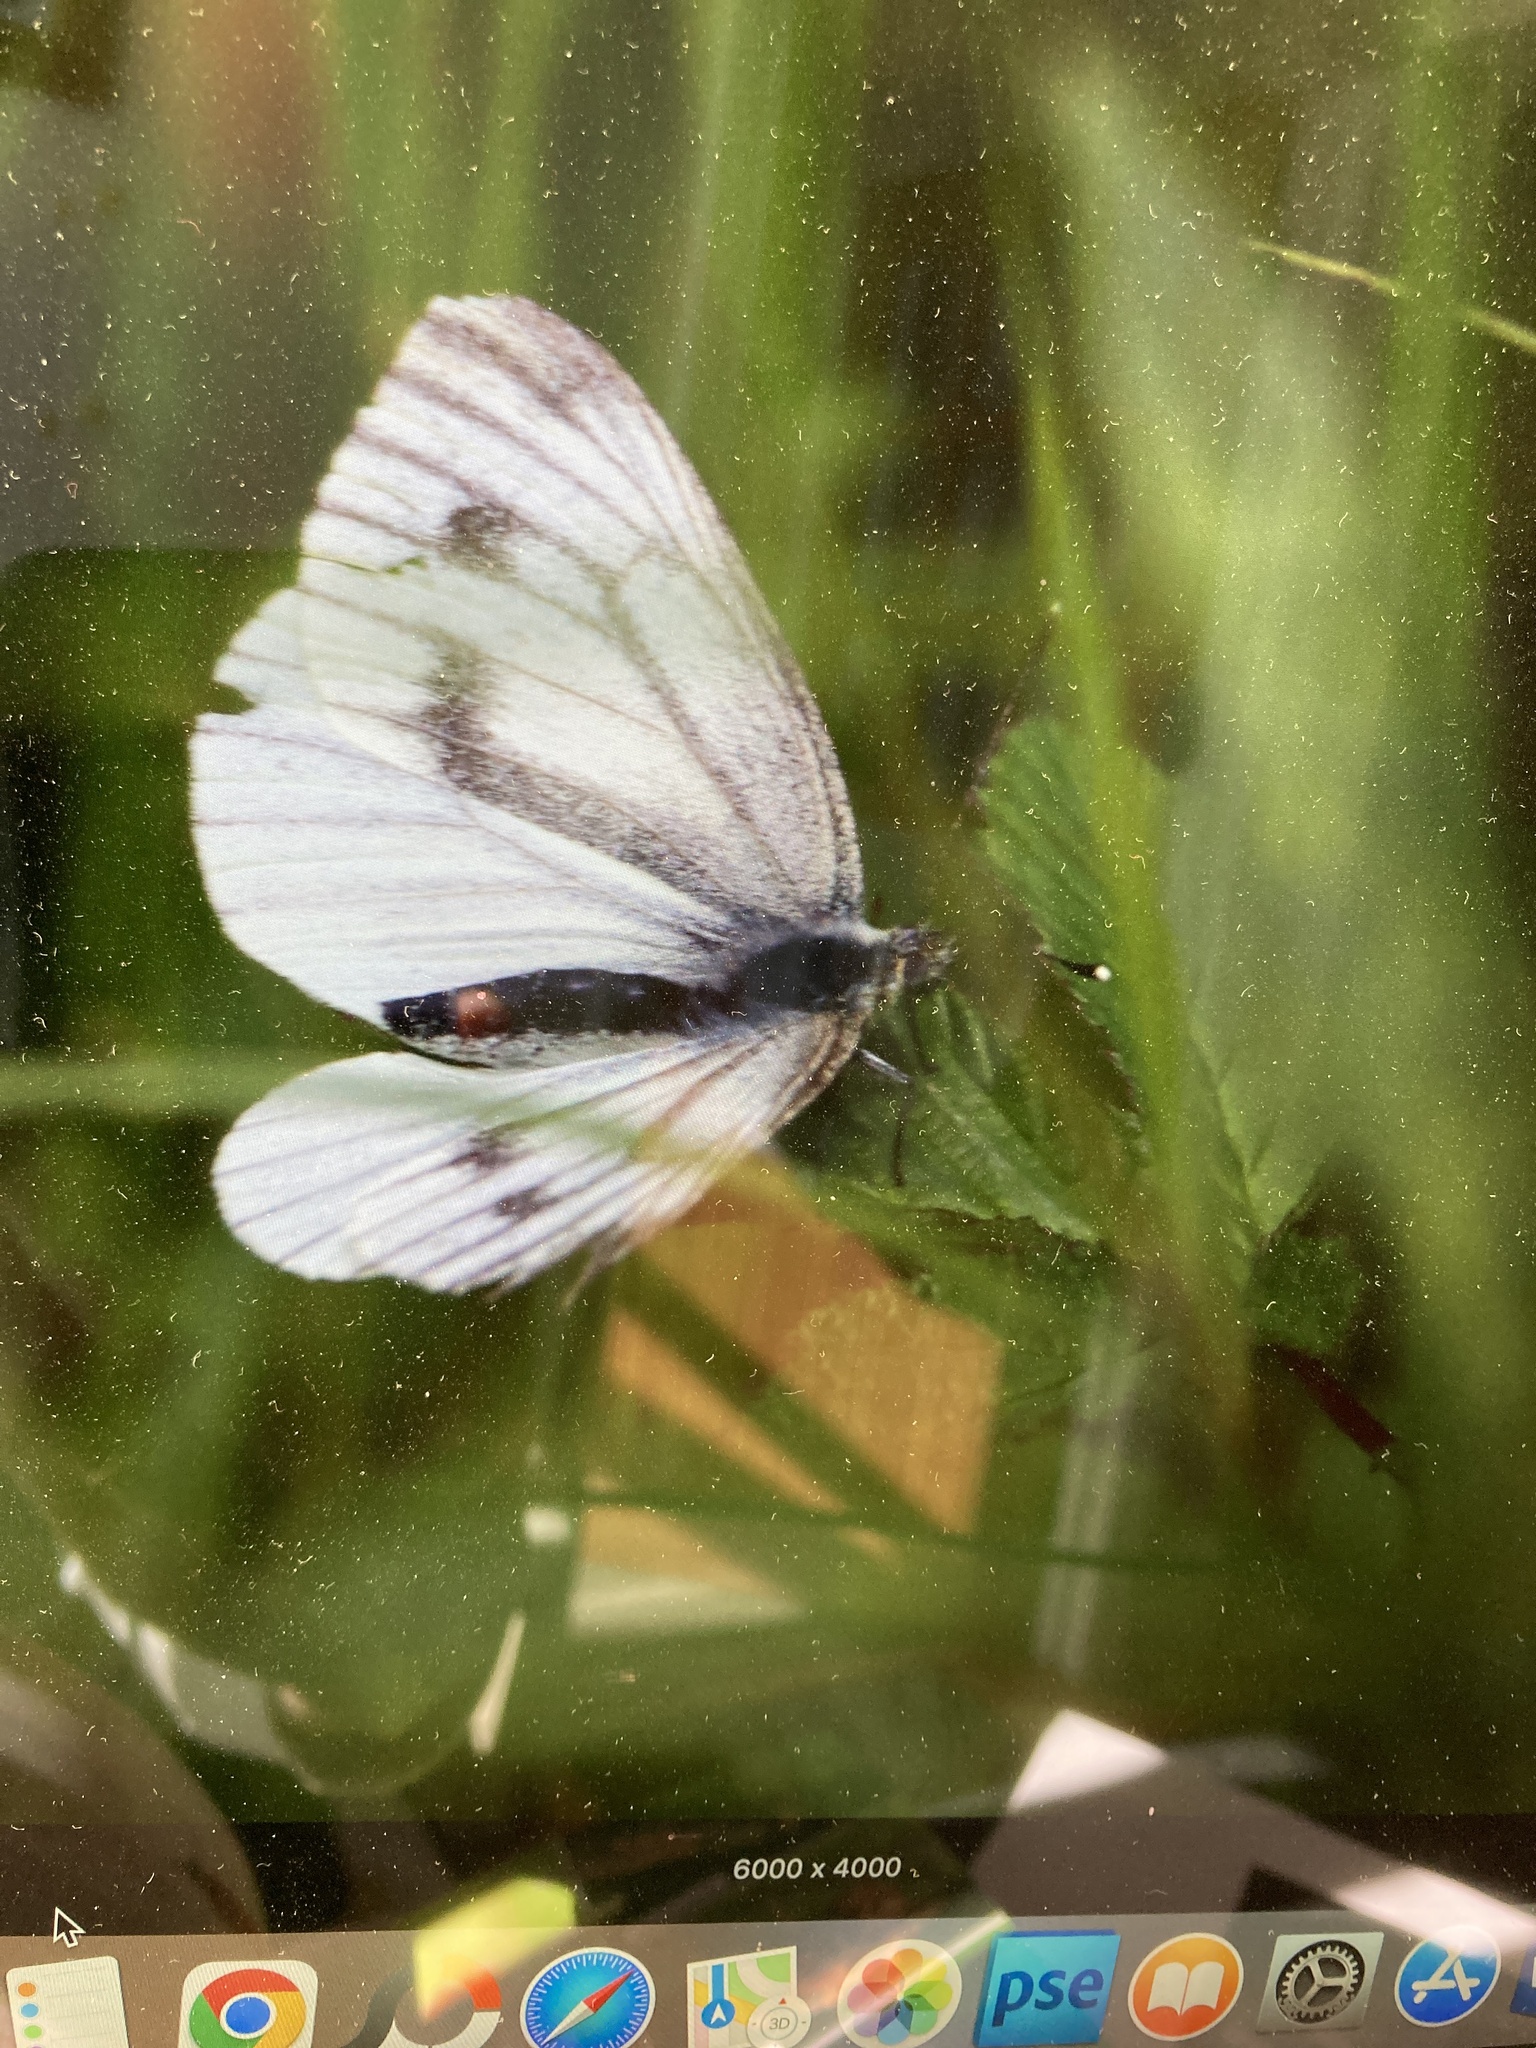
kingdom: Animalia
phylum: Arthropoda
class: Insecta
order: Lepidoptera
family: Pieridae
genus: Pieris
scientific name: Pieris napi
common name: Green-veined white
